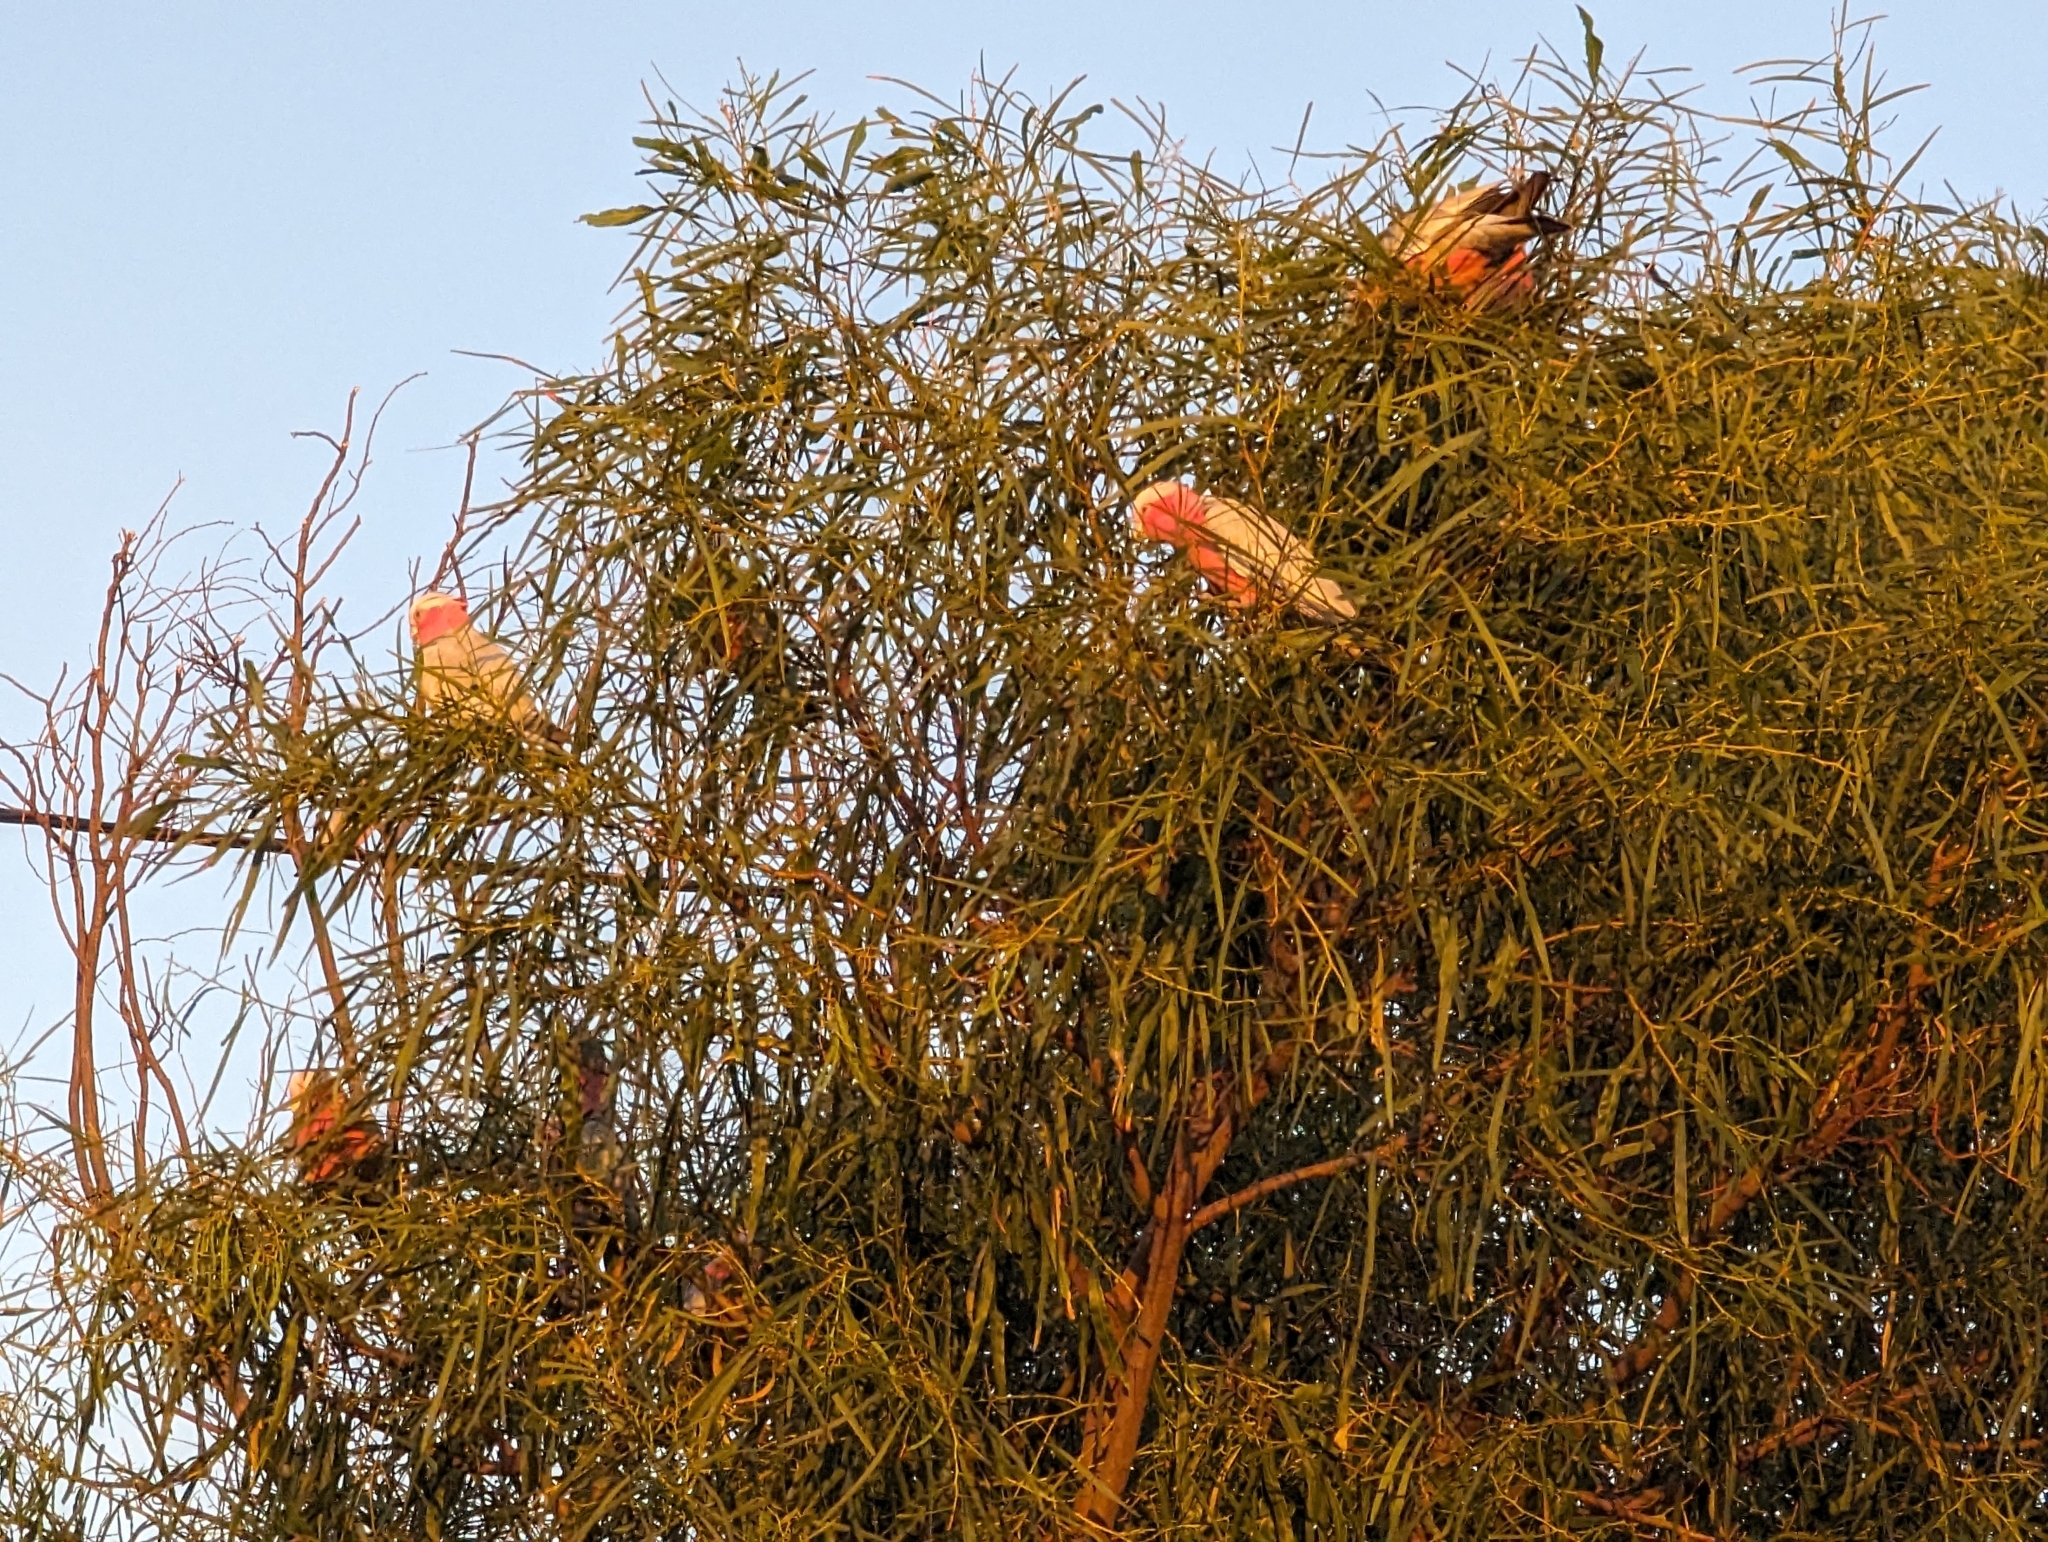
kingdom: Animalia
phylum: Chordata
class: Aves
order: Psittaciformes
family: Psittacidae
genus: Eolophus
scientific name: Eolophus roseicapilla
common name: Galah
